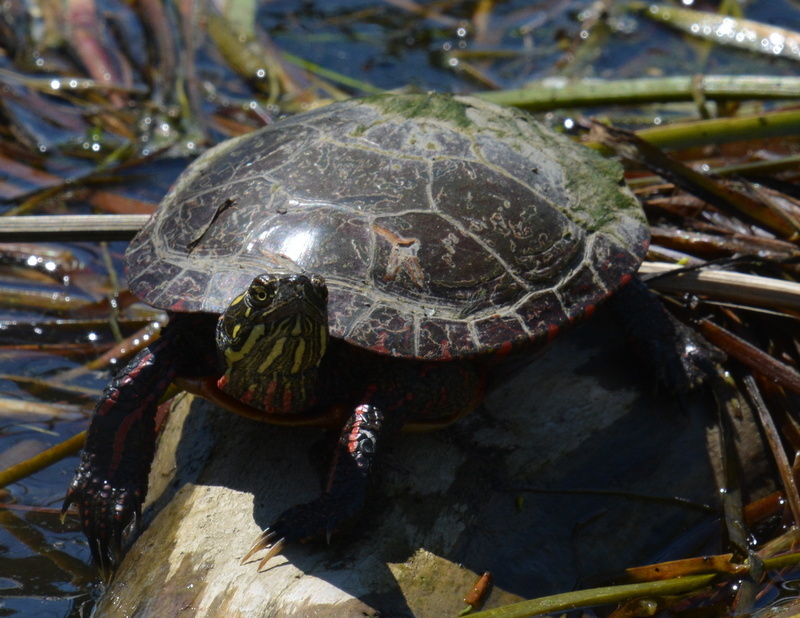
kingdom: Animalia
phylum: Chordata
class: Testudines
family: Emydidae
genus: Chrysemys
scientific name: Chrysemys picta
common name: Painted turtle
